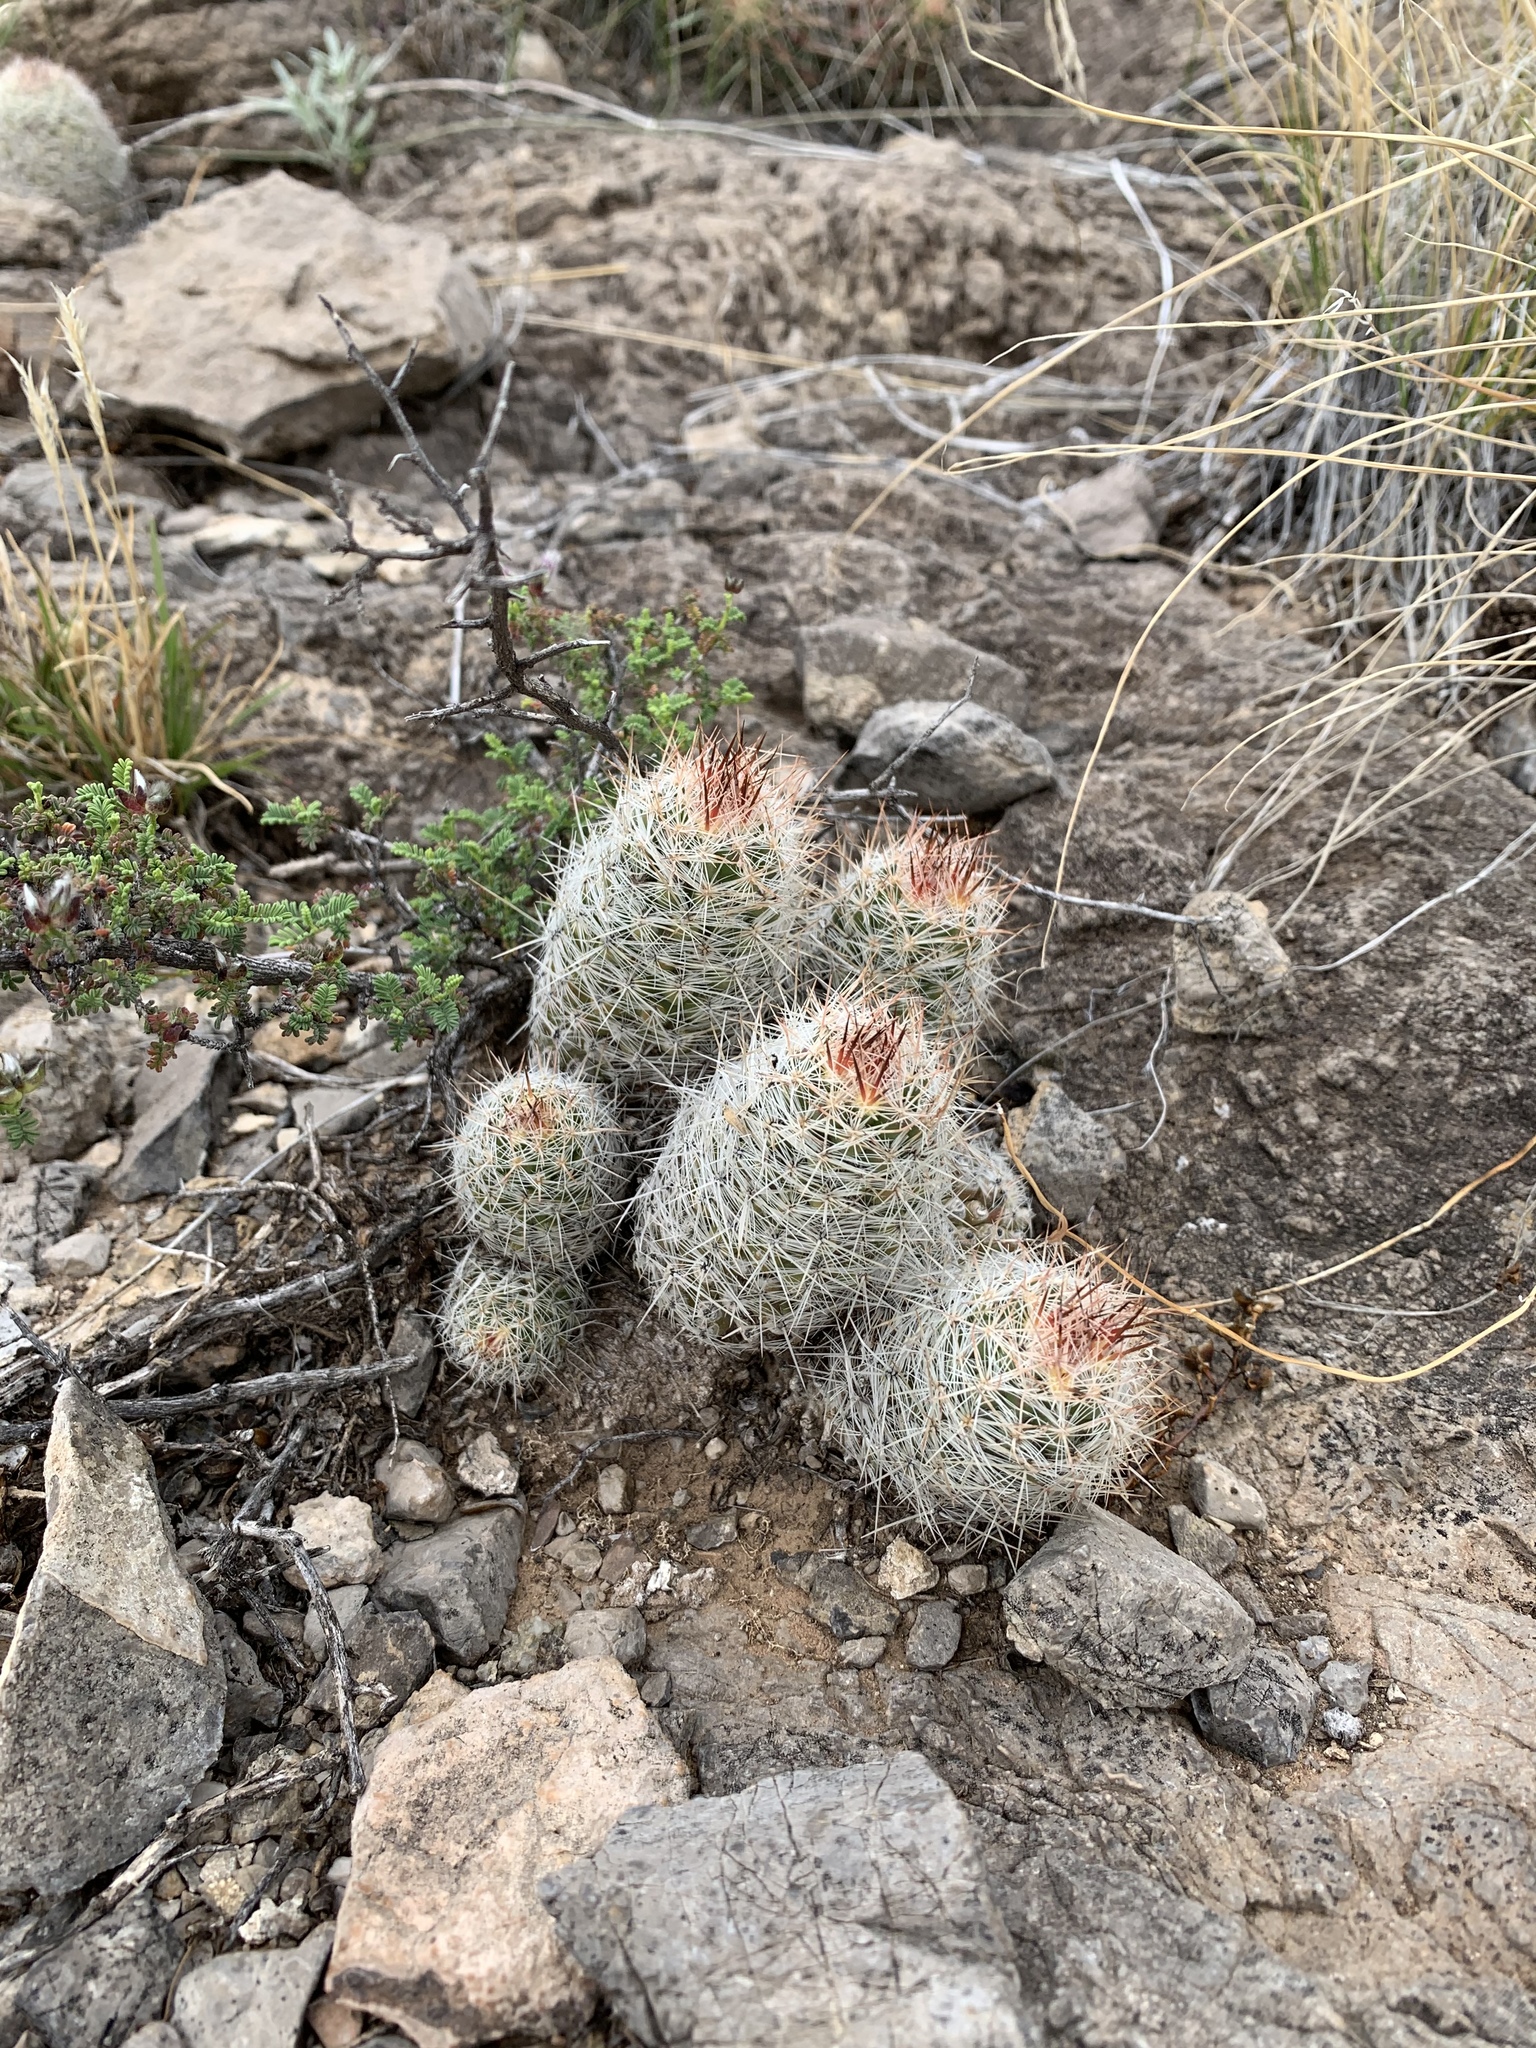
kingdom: Plantae
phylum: Tracheophyta
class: Magnoliopsida
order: Caryophyllales
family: Cactaceae
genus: Pelecyphora
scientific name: Pelecyphora tuberculosa
